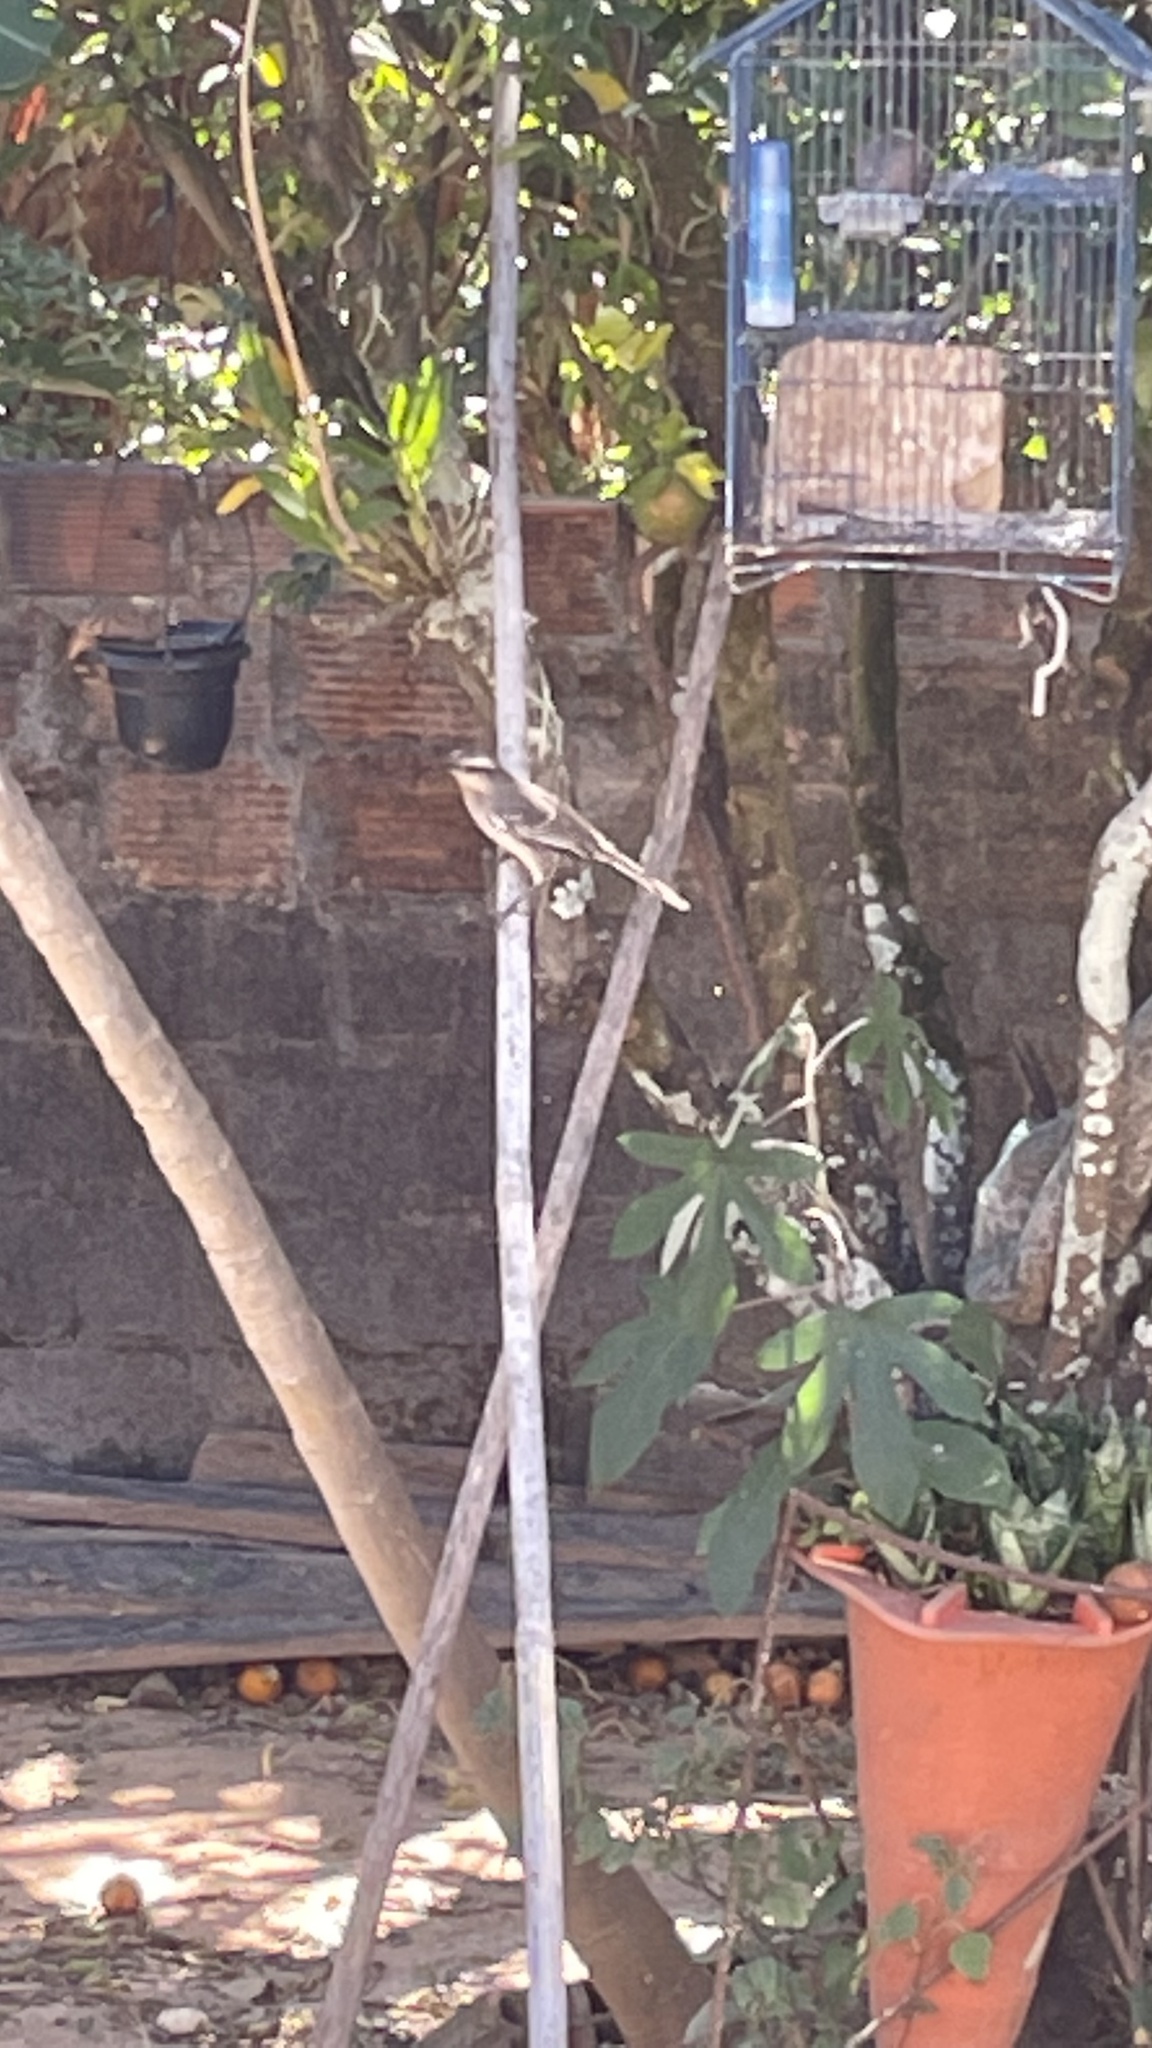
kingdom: Animalia
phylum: Chordata
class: Aves
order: Passeriformes
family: Mimidae
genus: Mimus
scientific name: Mimus saturninus
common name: Chalk-browed mockingbird
